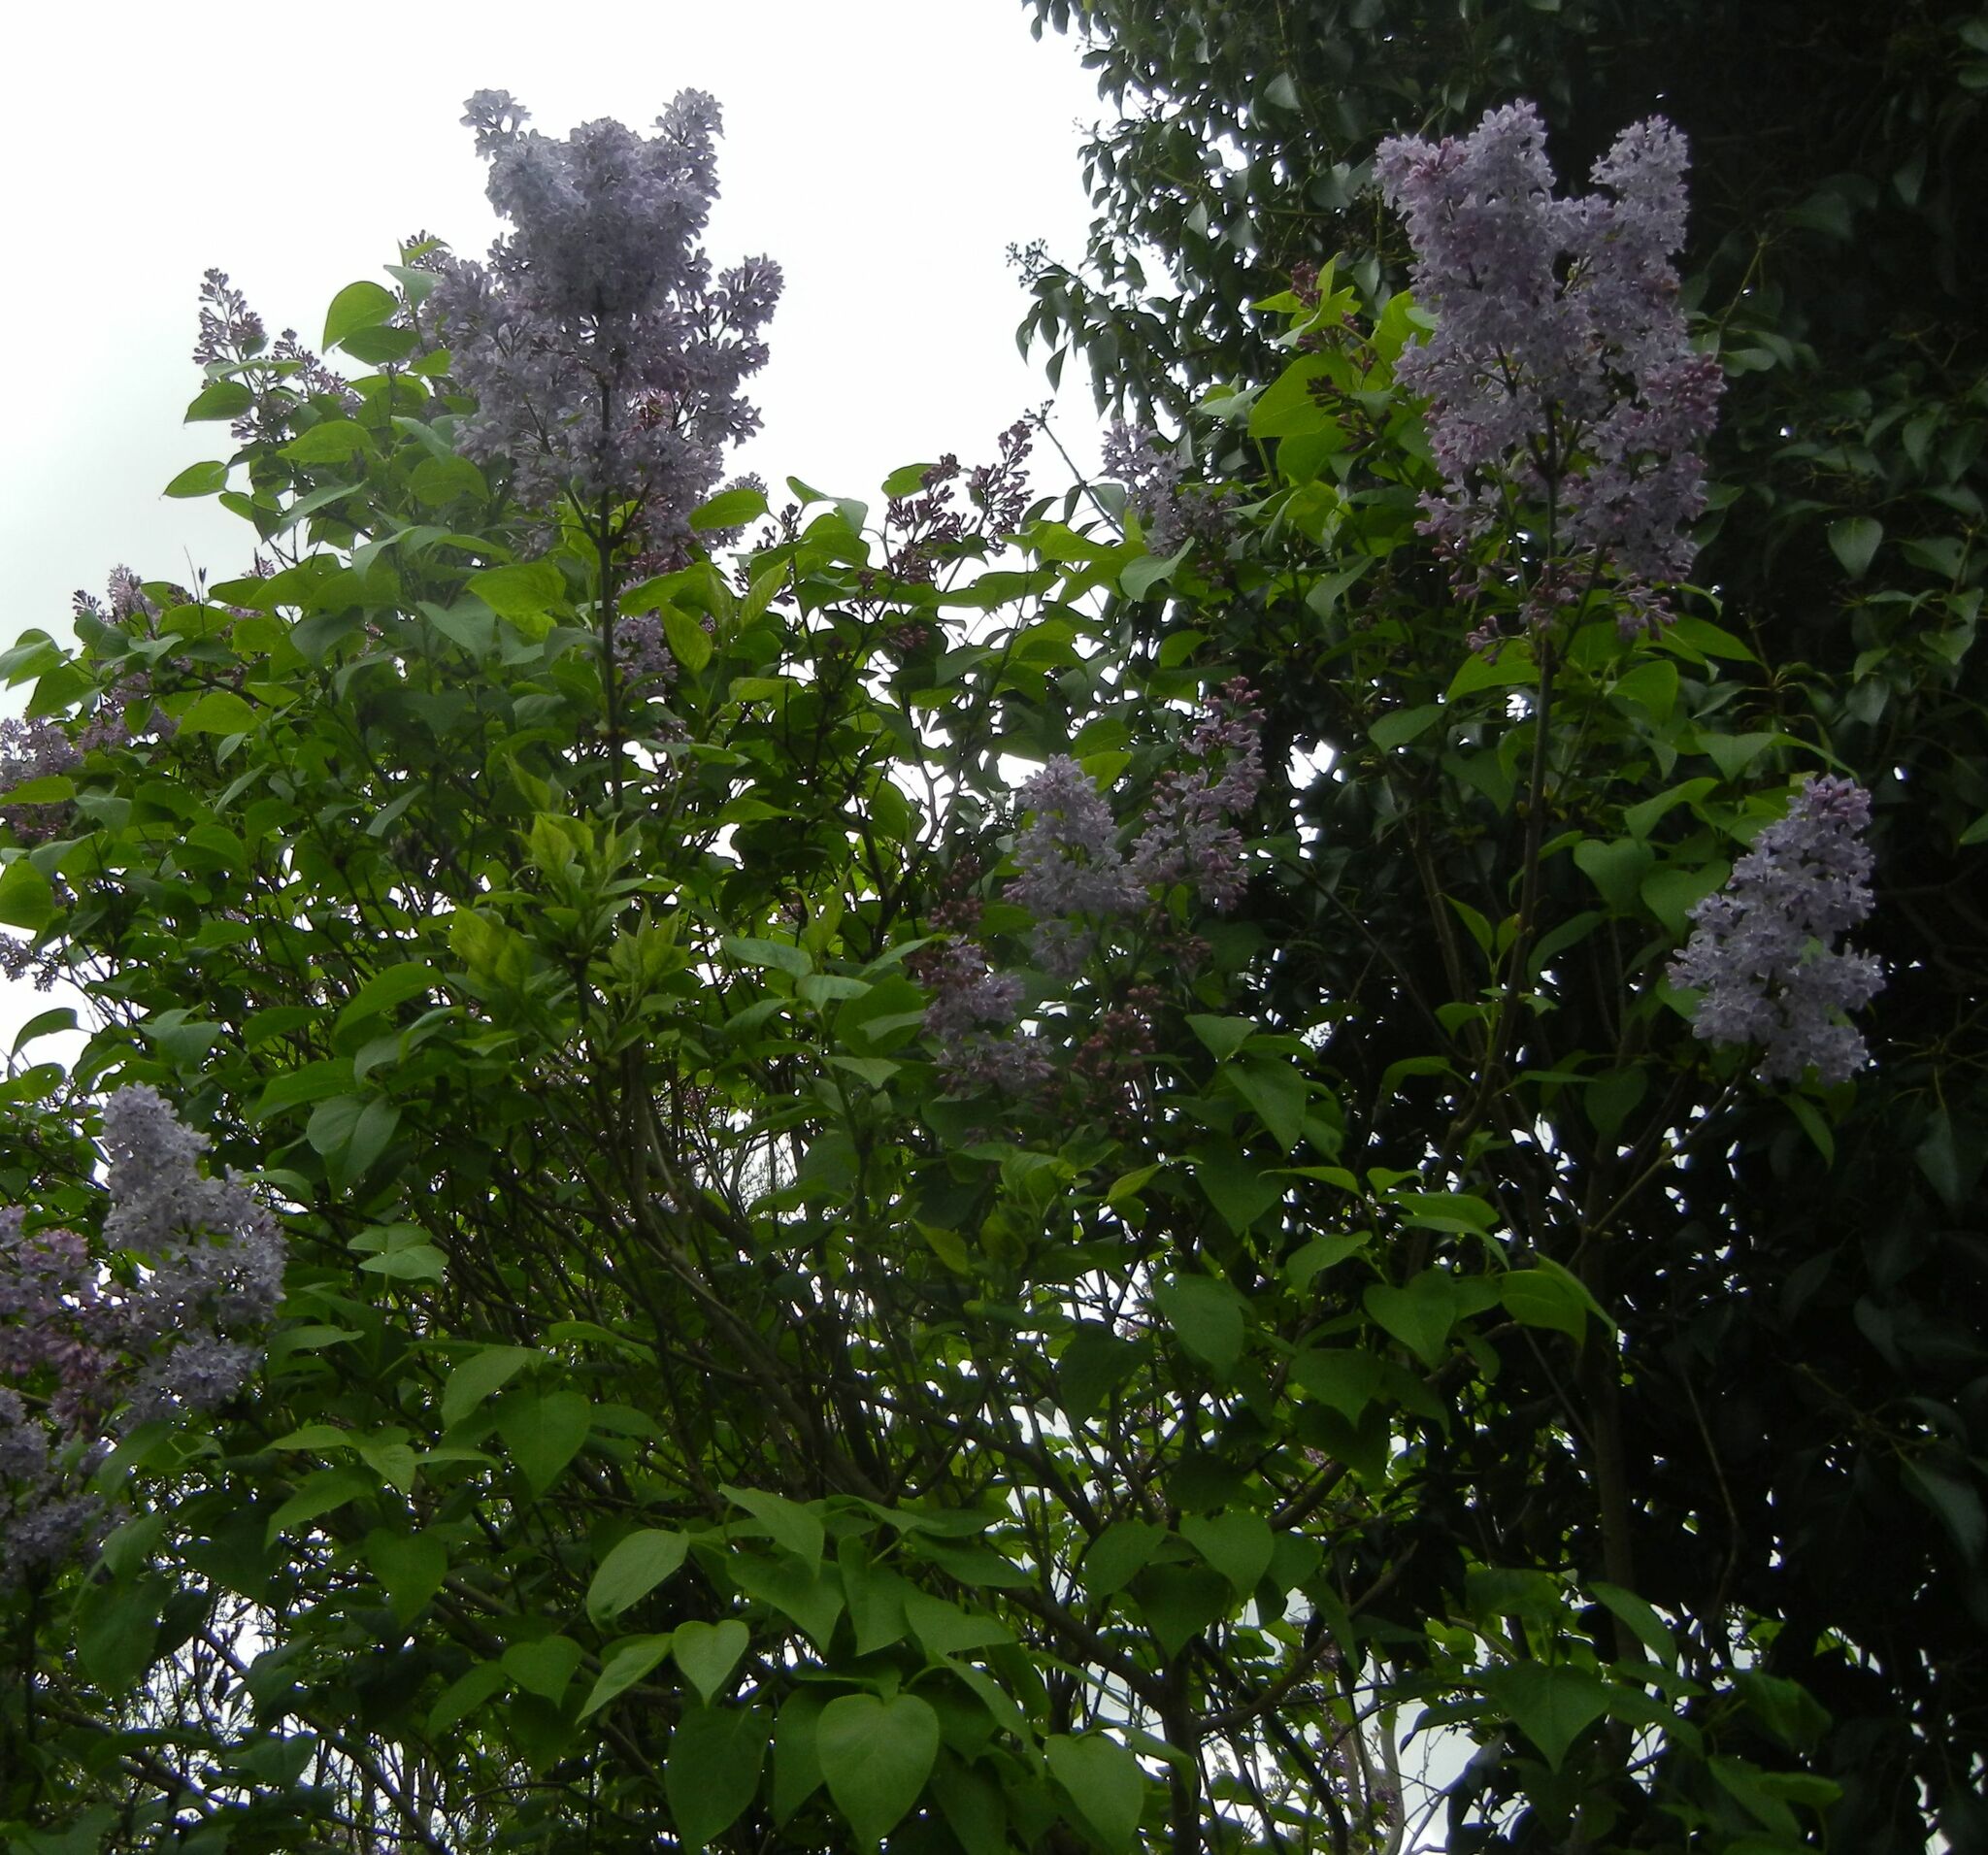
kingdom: Plantae
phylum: Tracheophyta
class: Magnoliopsida
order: Lamiales
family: Oleaceae
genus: Syringa
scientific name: Syringa vulgaris
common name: Common lilac
